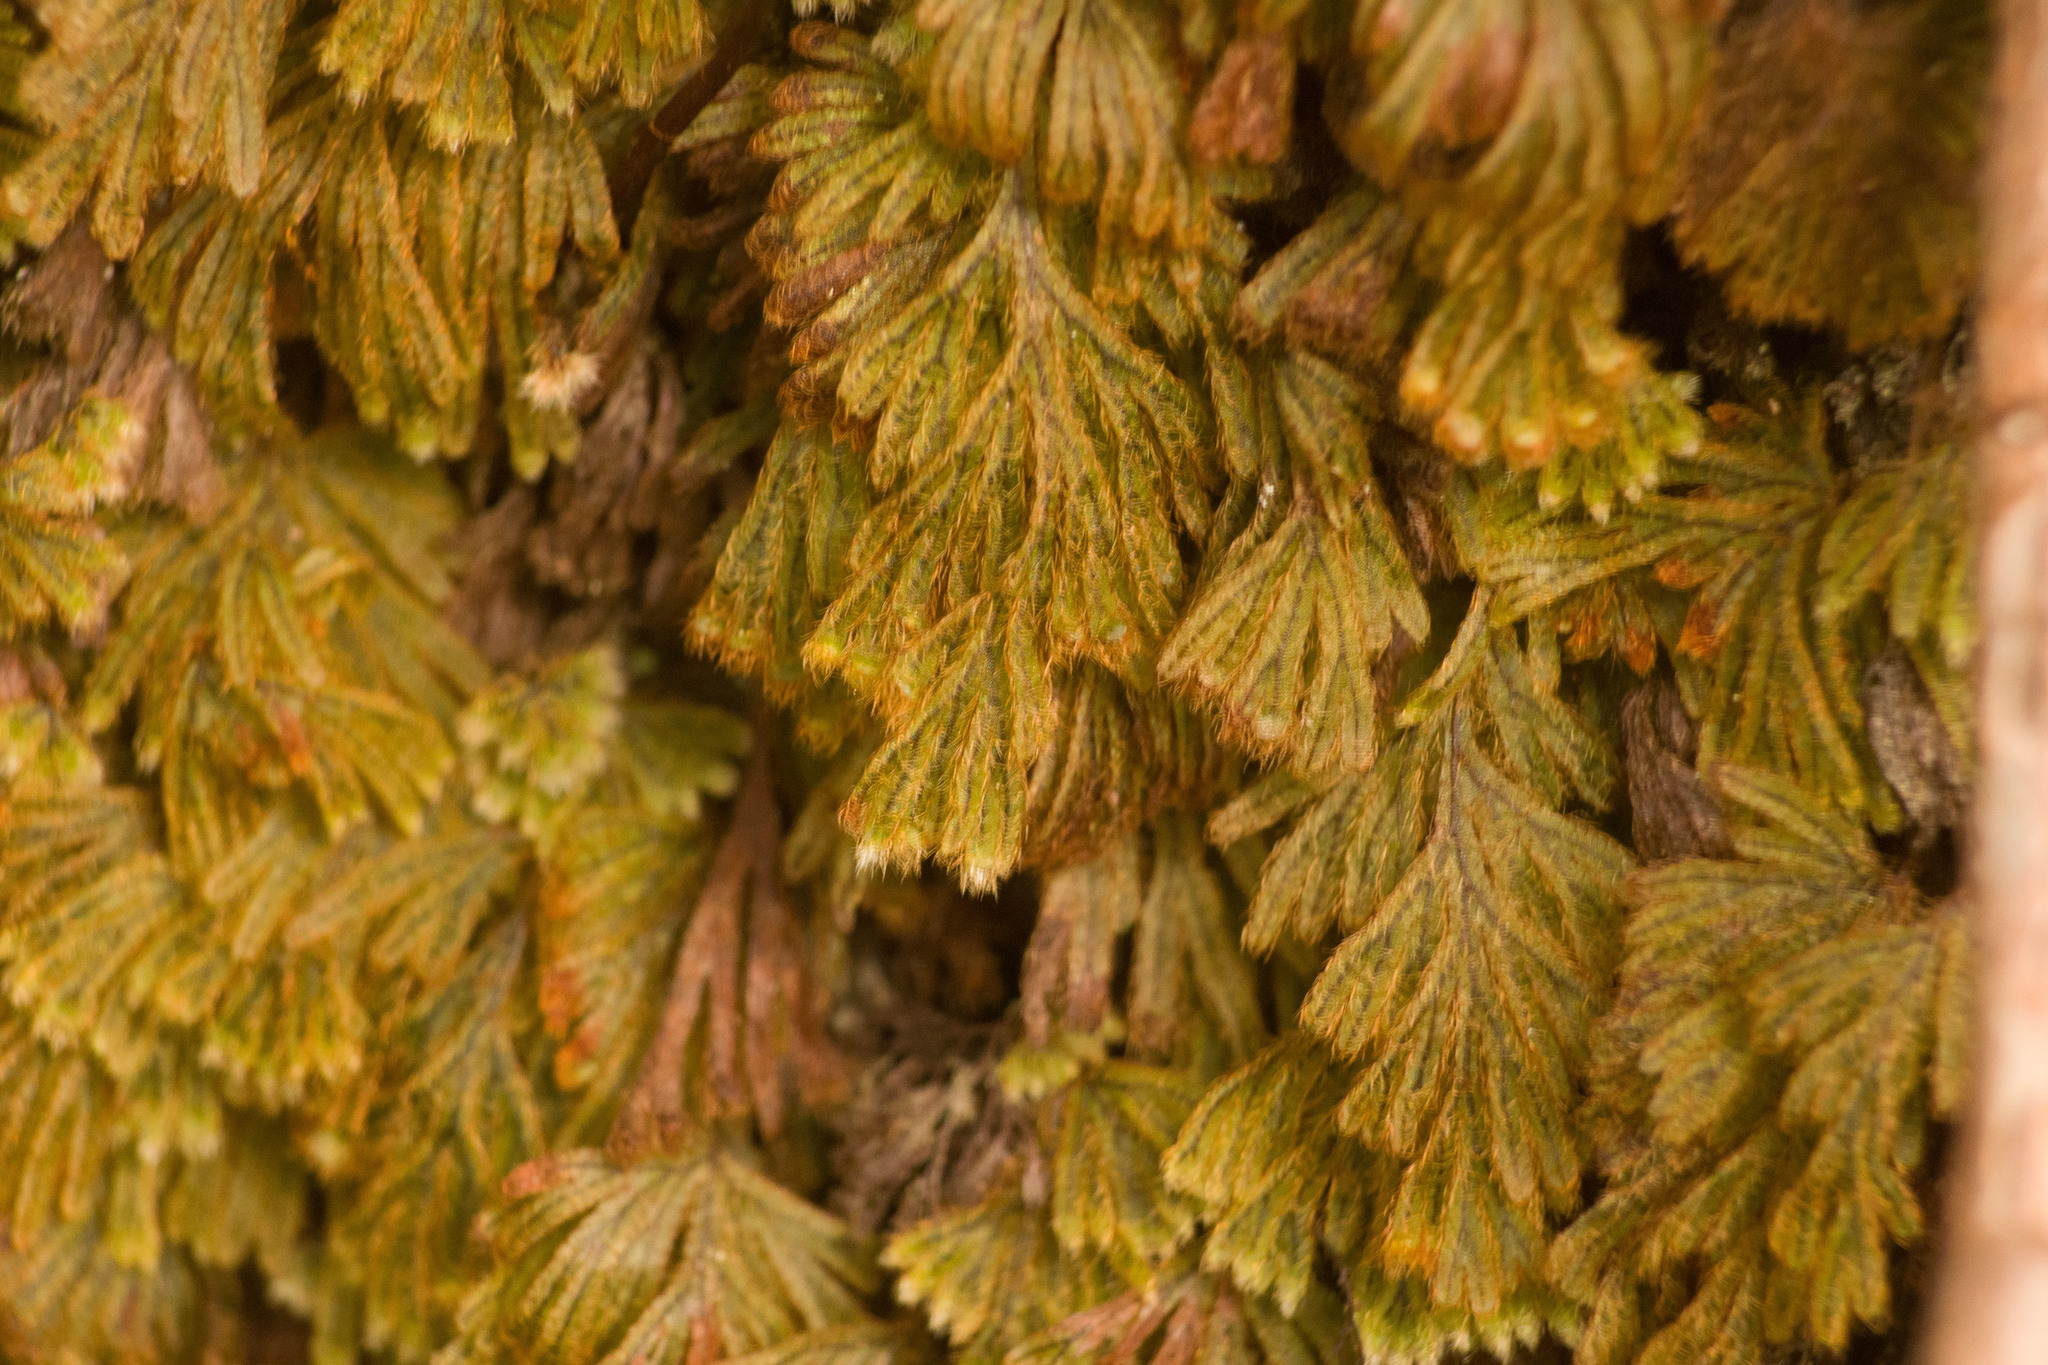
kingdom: Plantae
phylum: Tracheophyta
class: Polypodiopsida
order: Hymenophyllales
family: Hymenophyllaceae
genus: Hymenophyllum
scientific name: Hymenophyllum obtusum
